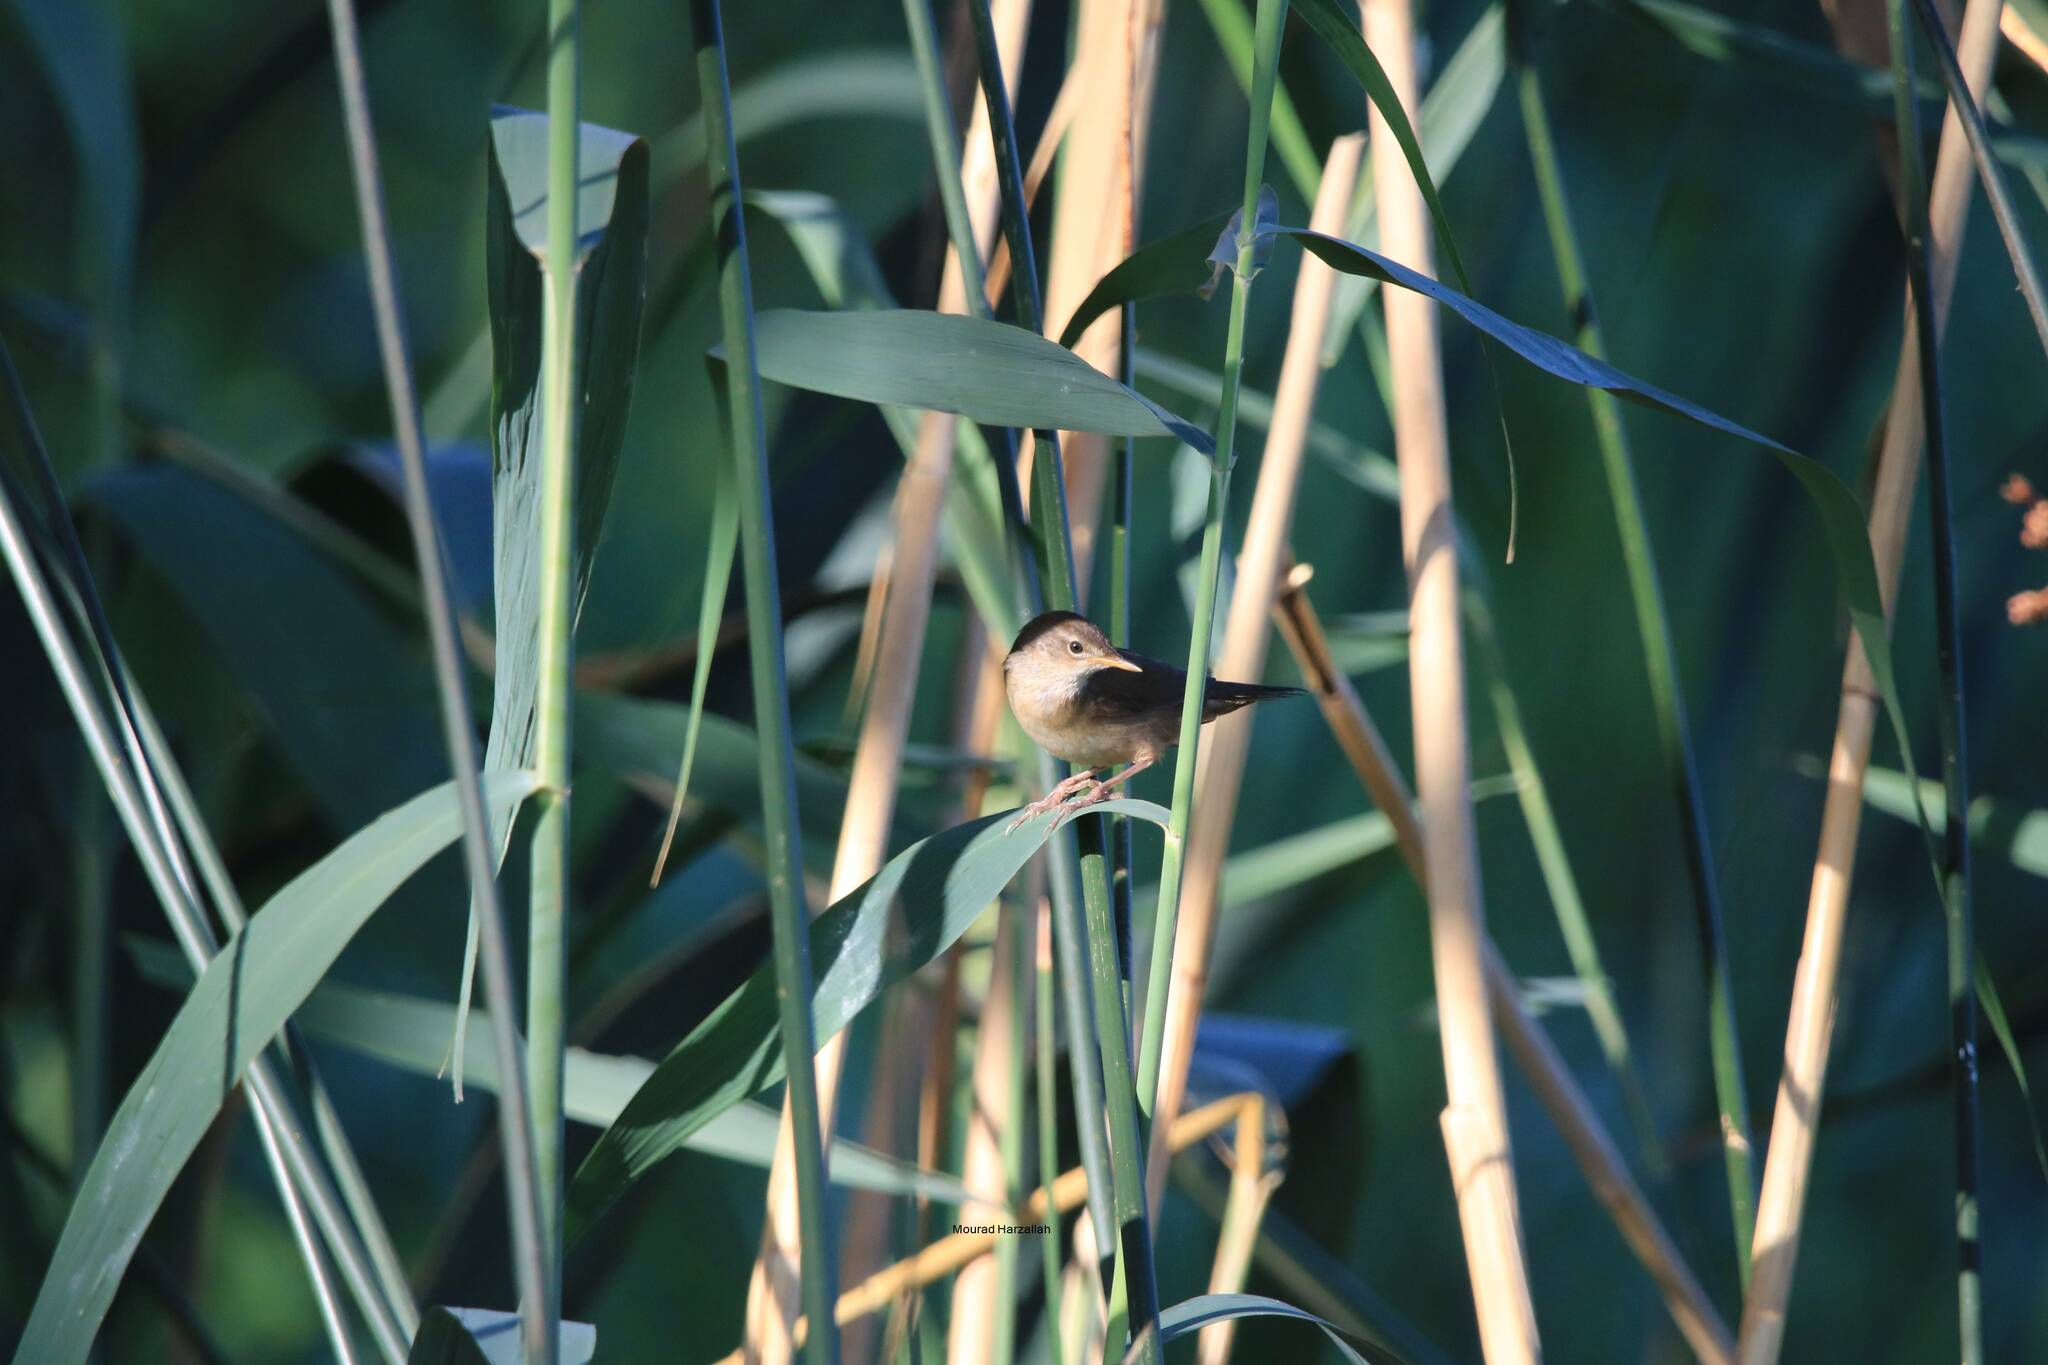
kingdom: Animalia
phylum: Chordata
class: Aves
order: Passeriformes
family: Acrocephalidae
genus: Acrocephalus
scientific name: Acrocephalus scirpaceus
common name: Eurasian reed warbler
